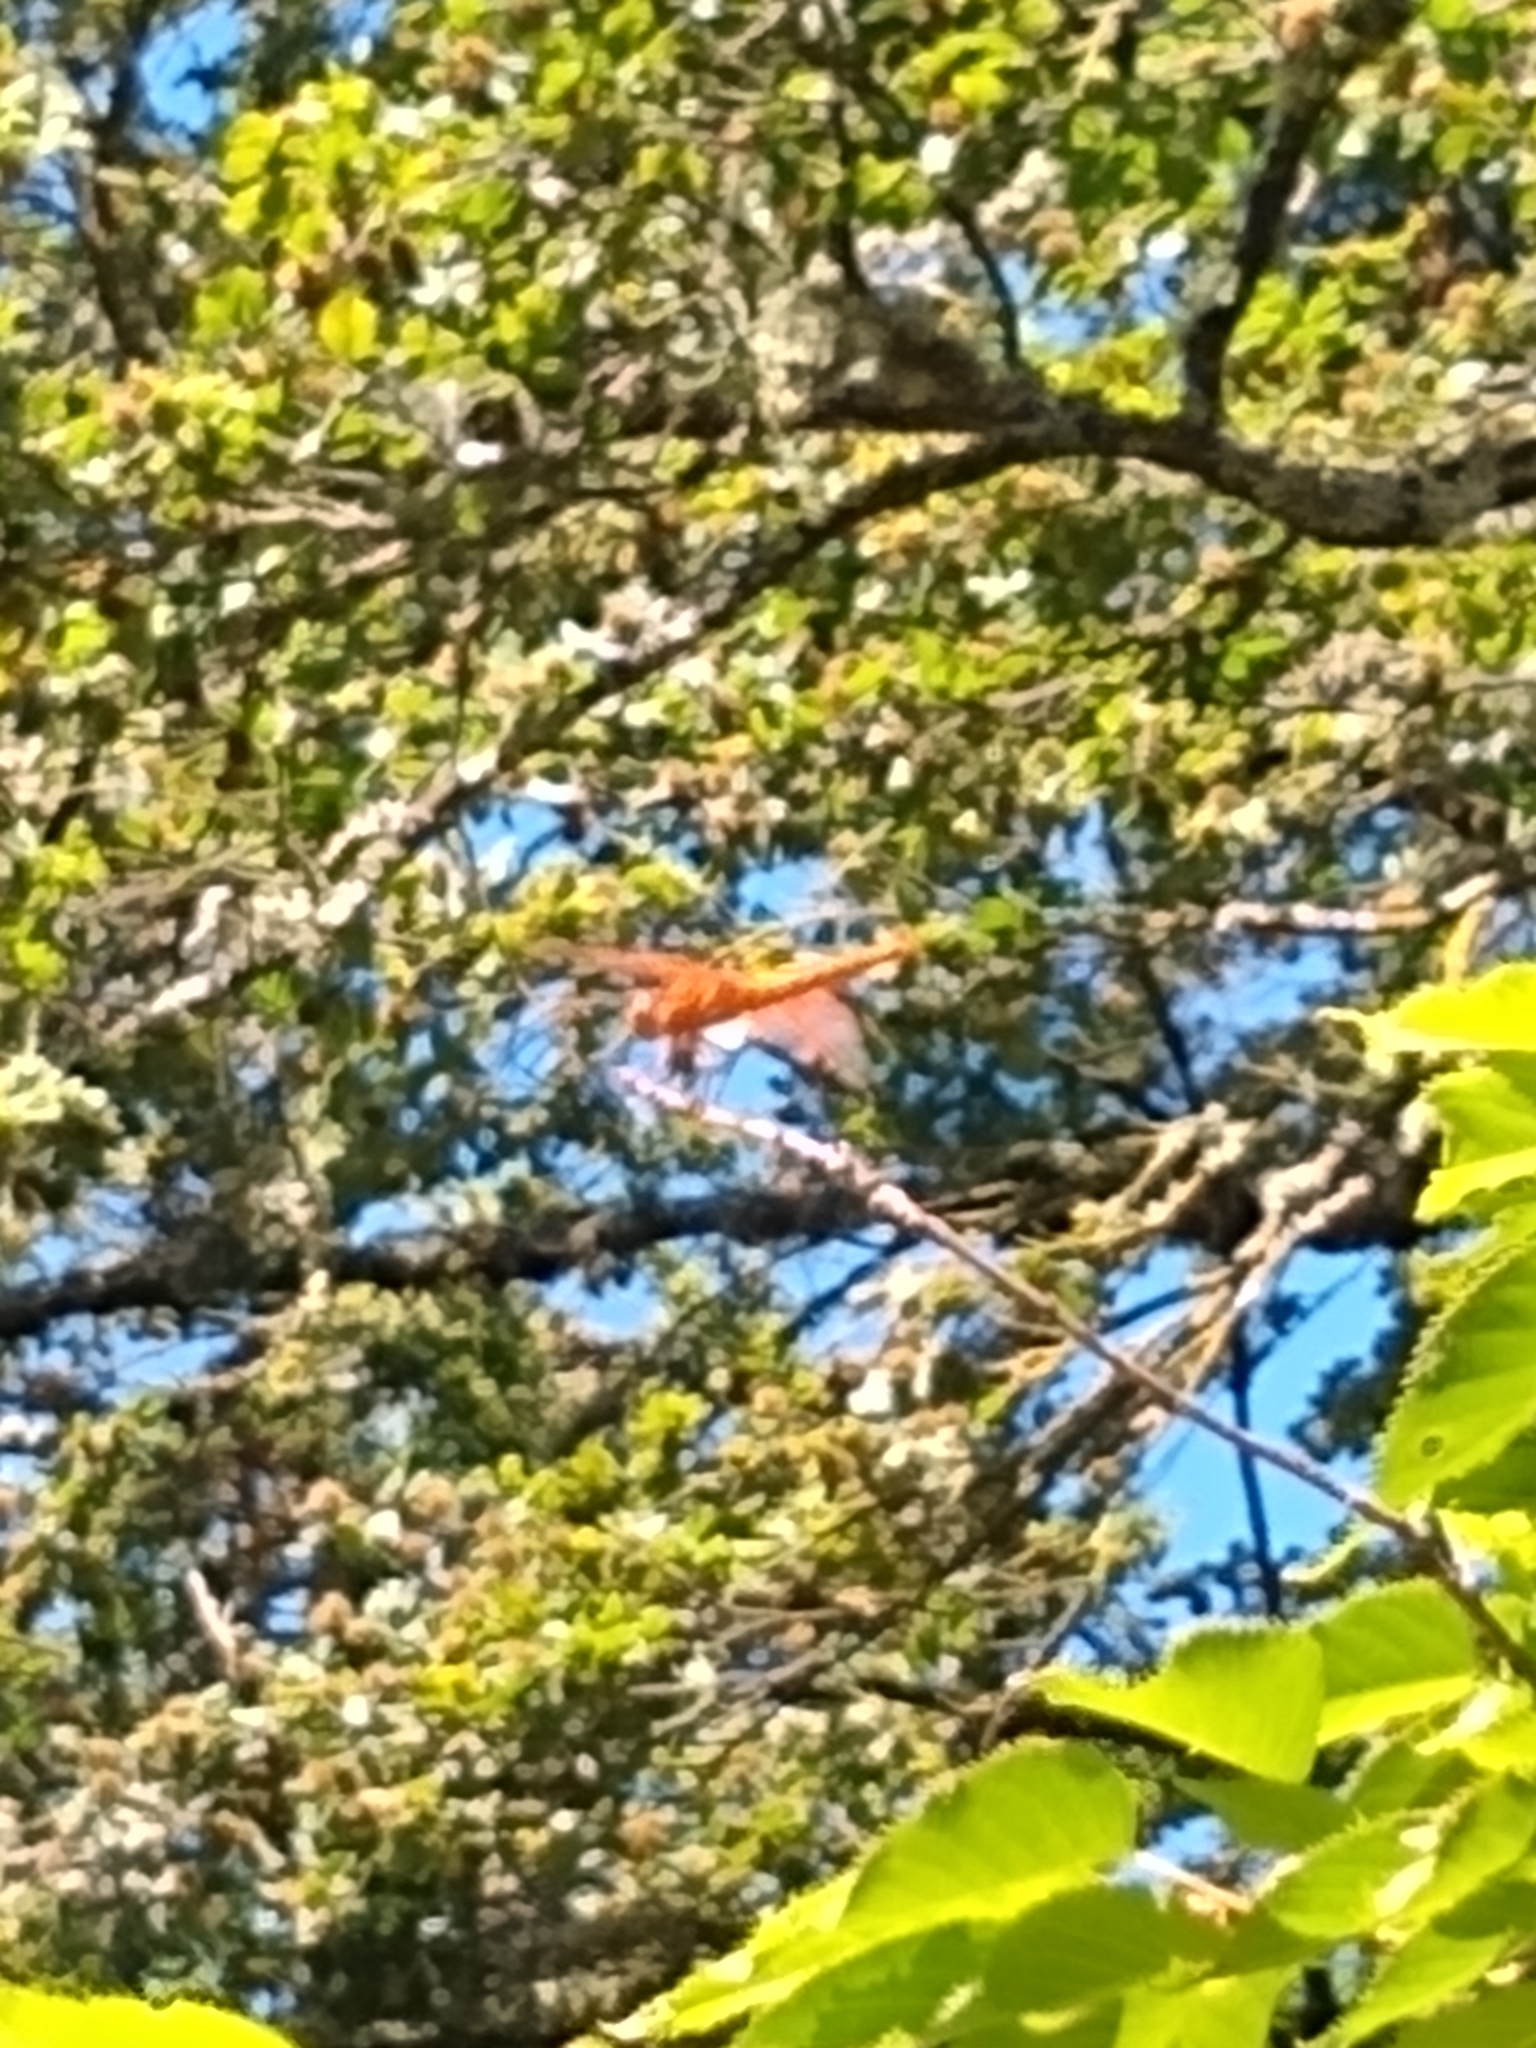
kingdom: Animalia
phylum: Arthropoda
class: Insecta
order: Odonata
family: Libellulidae
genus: Libellula
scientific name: Libellula saturata
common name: Flame skimmer
